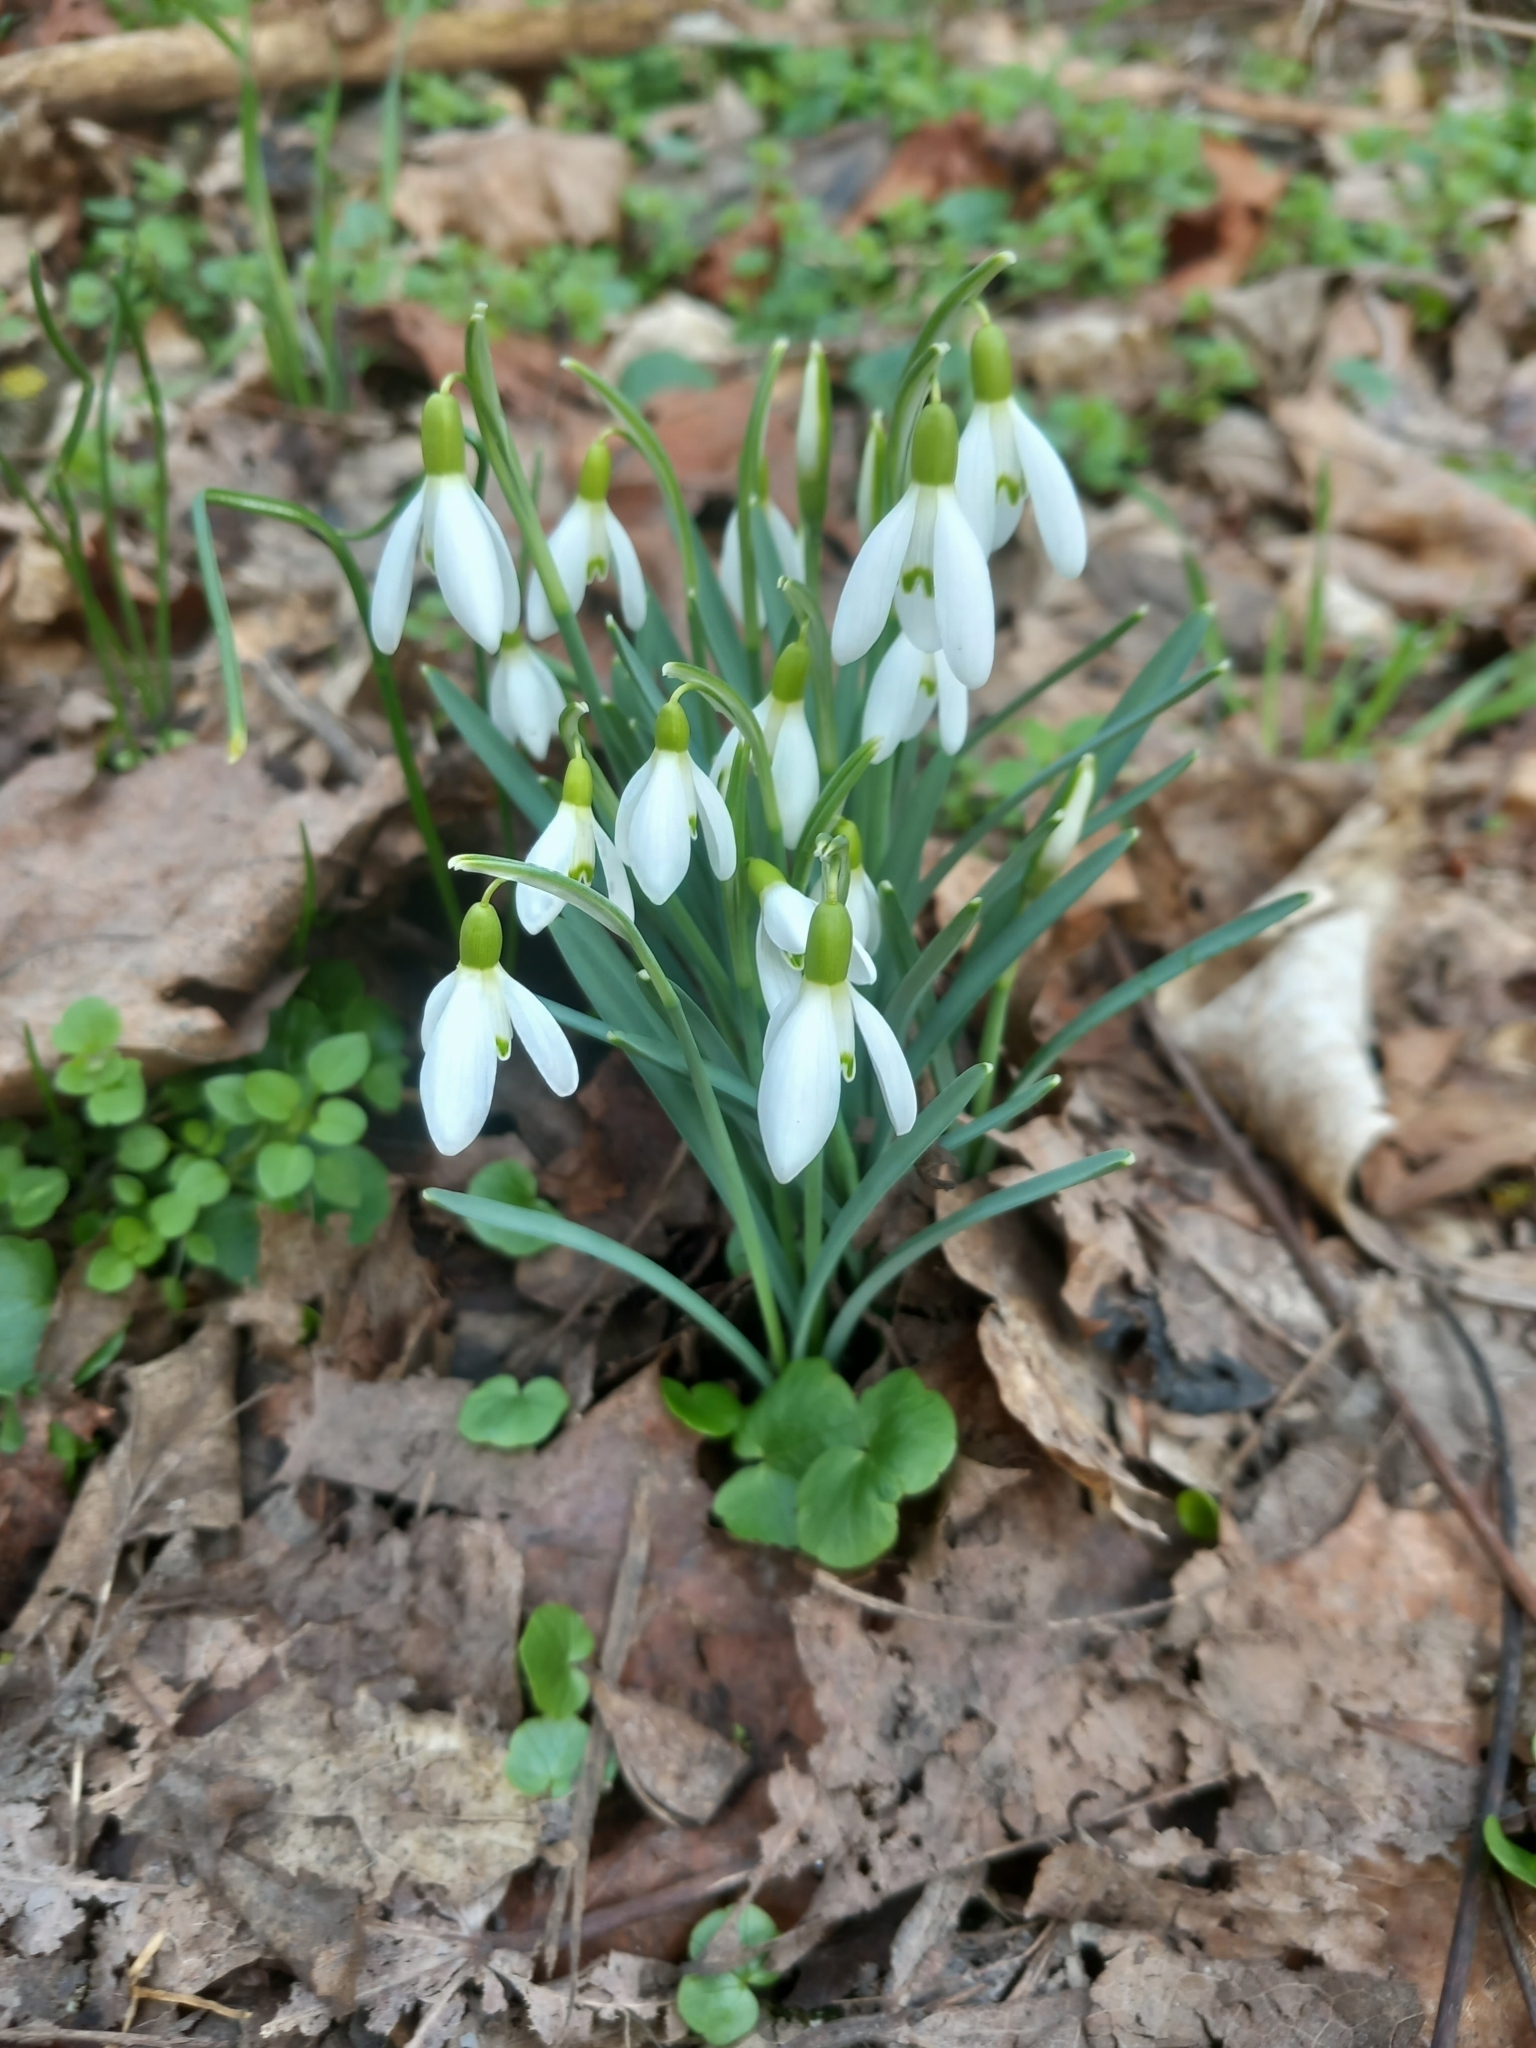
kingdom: Plantae
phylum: Tracheophyta
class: Liliopsida
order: Asparagales
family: Amaryllidaceae
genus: Galanthus
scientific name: Galanthus nivalis
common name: Snowdrop
